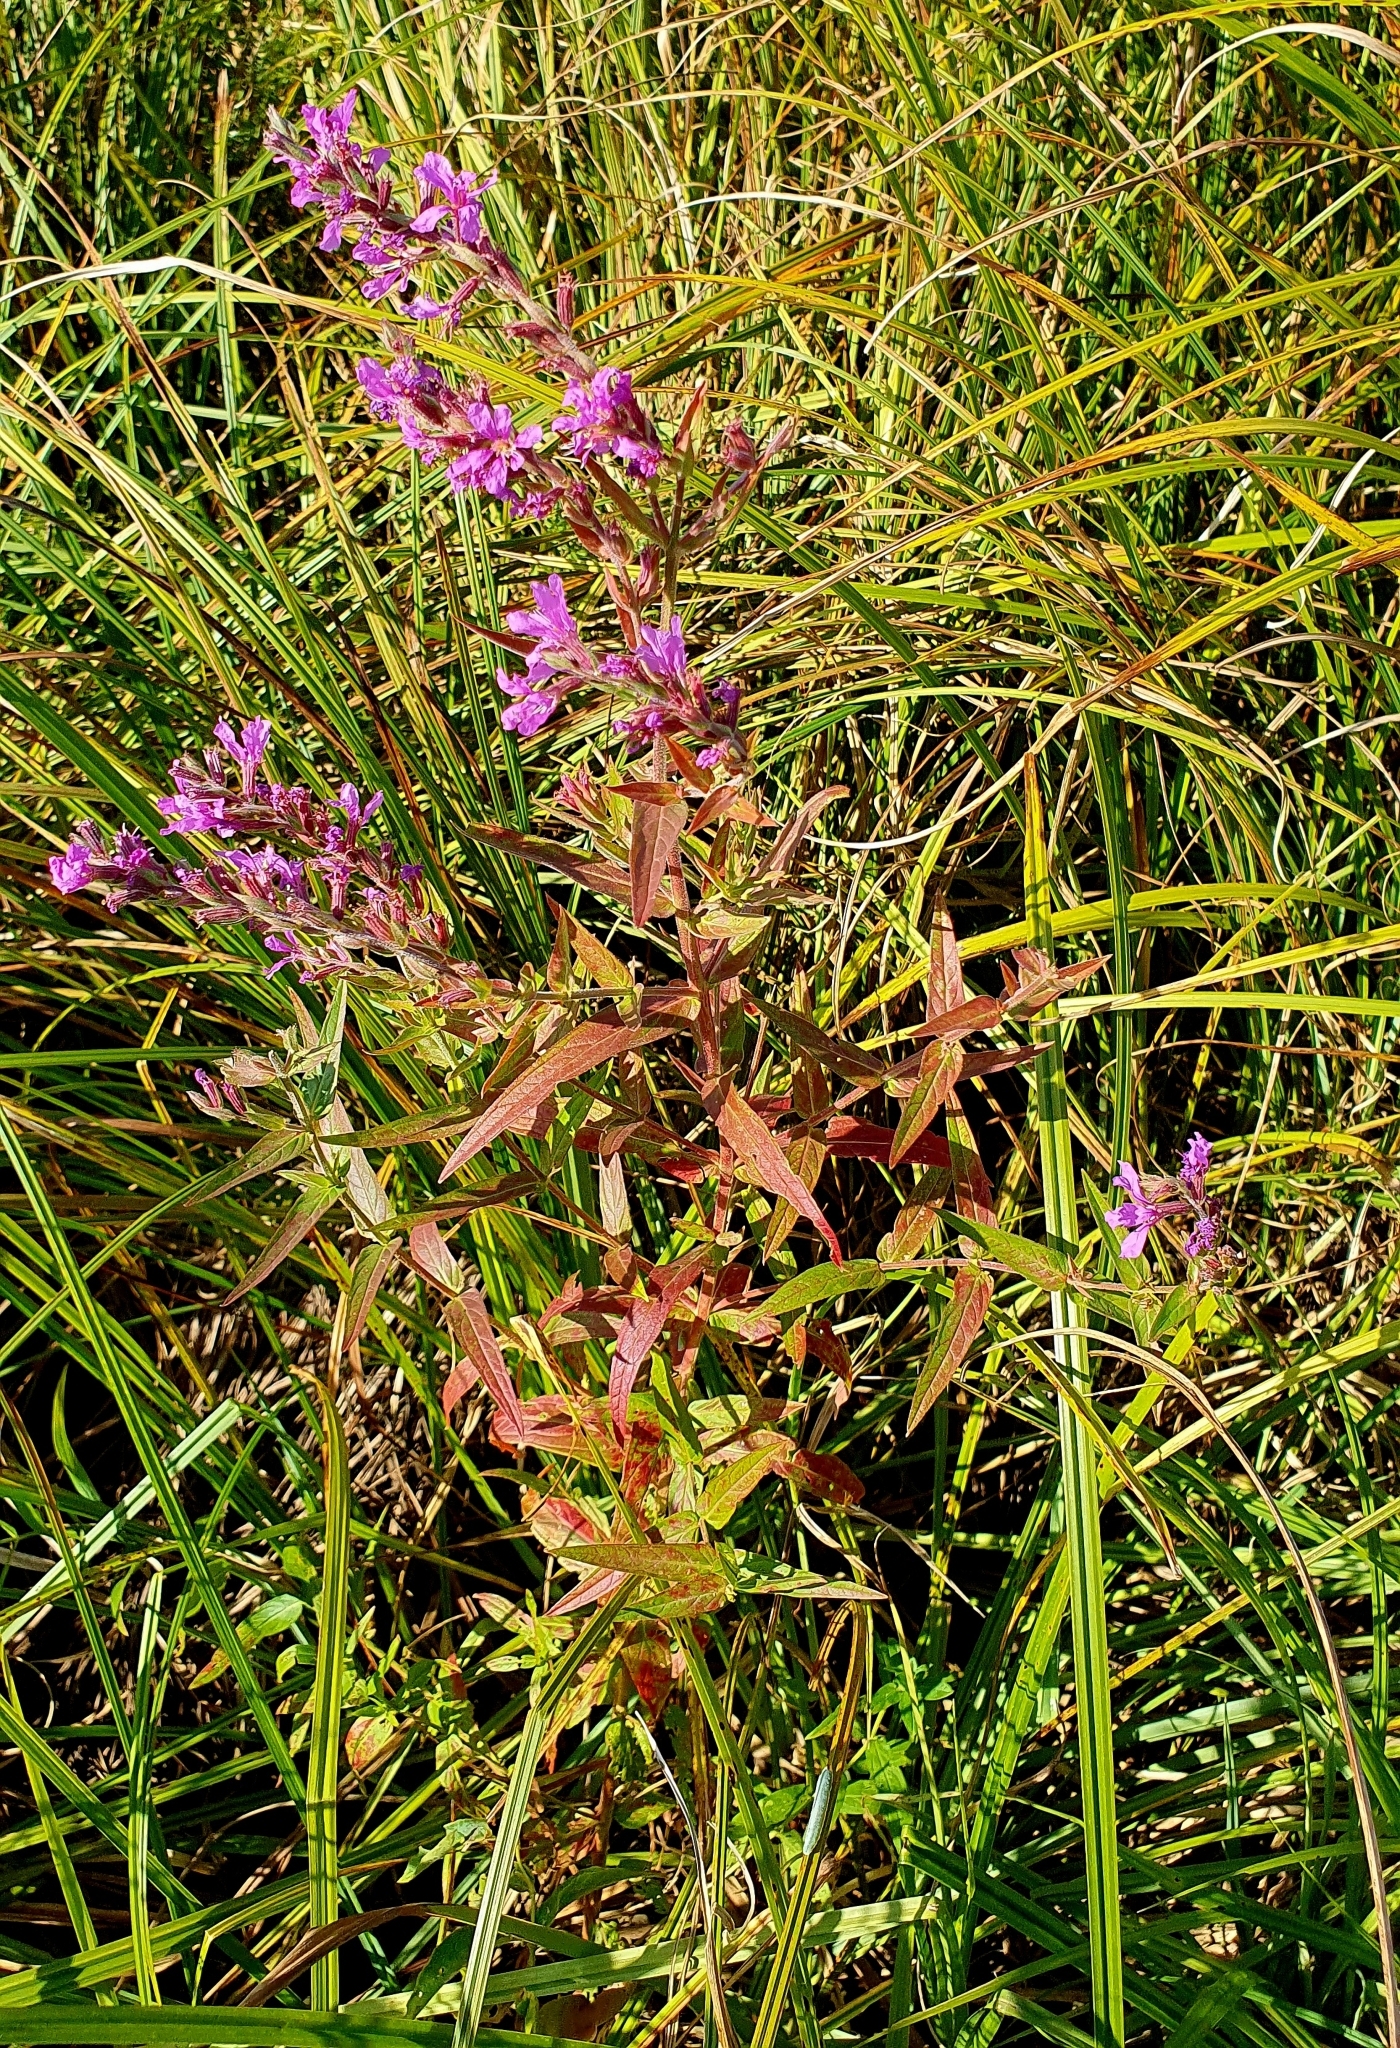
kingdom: Plantae
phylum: Tracheophyta
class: Magnoliopsida
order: Myrtales
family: Lythraceae
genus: Lythrum
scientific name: Lythrum salicaria
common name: Purple loosestrife
